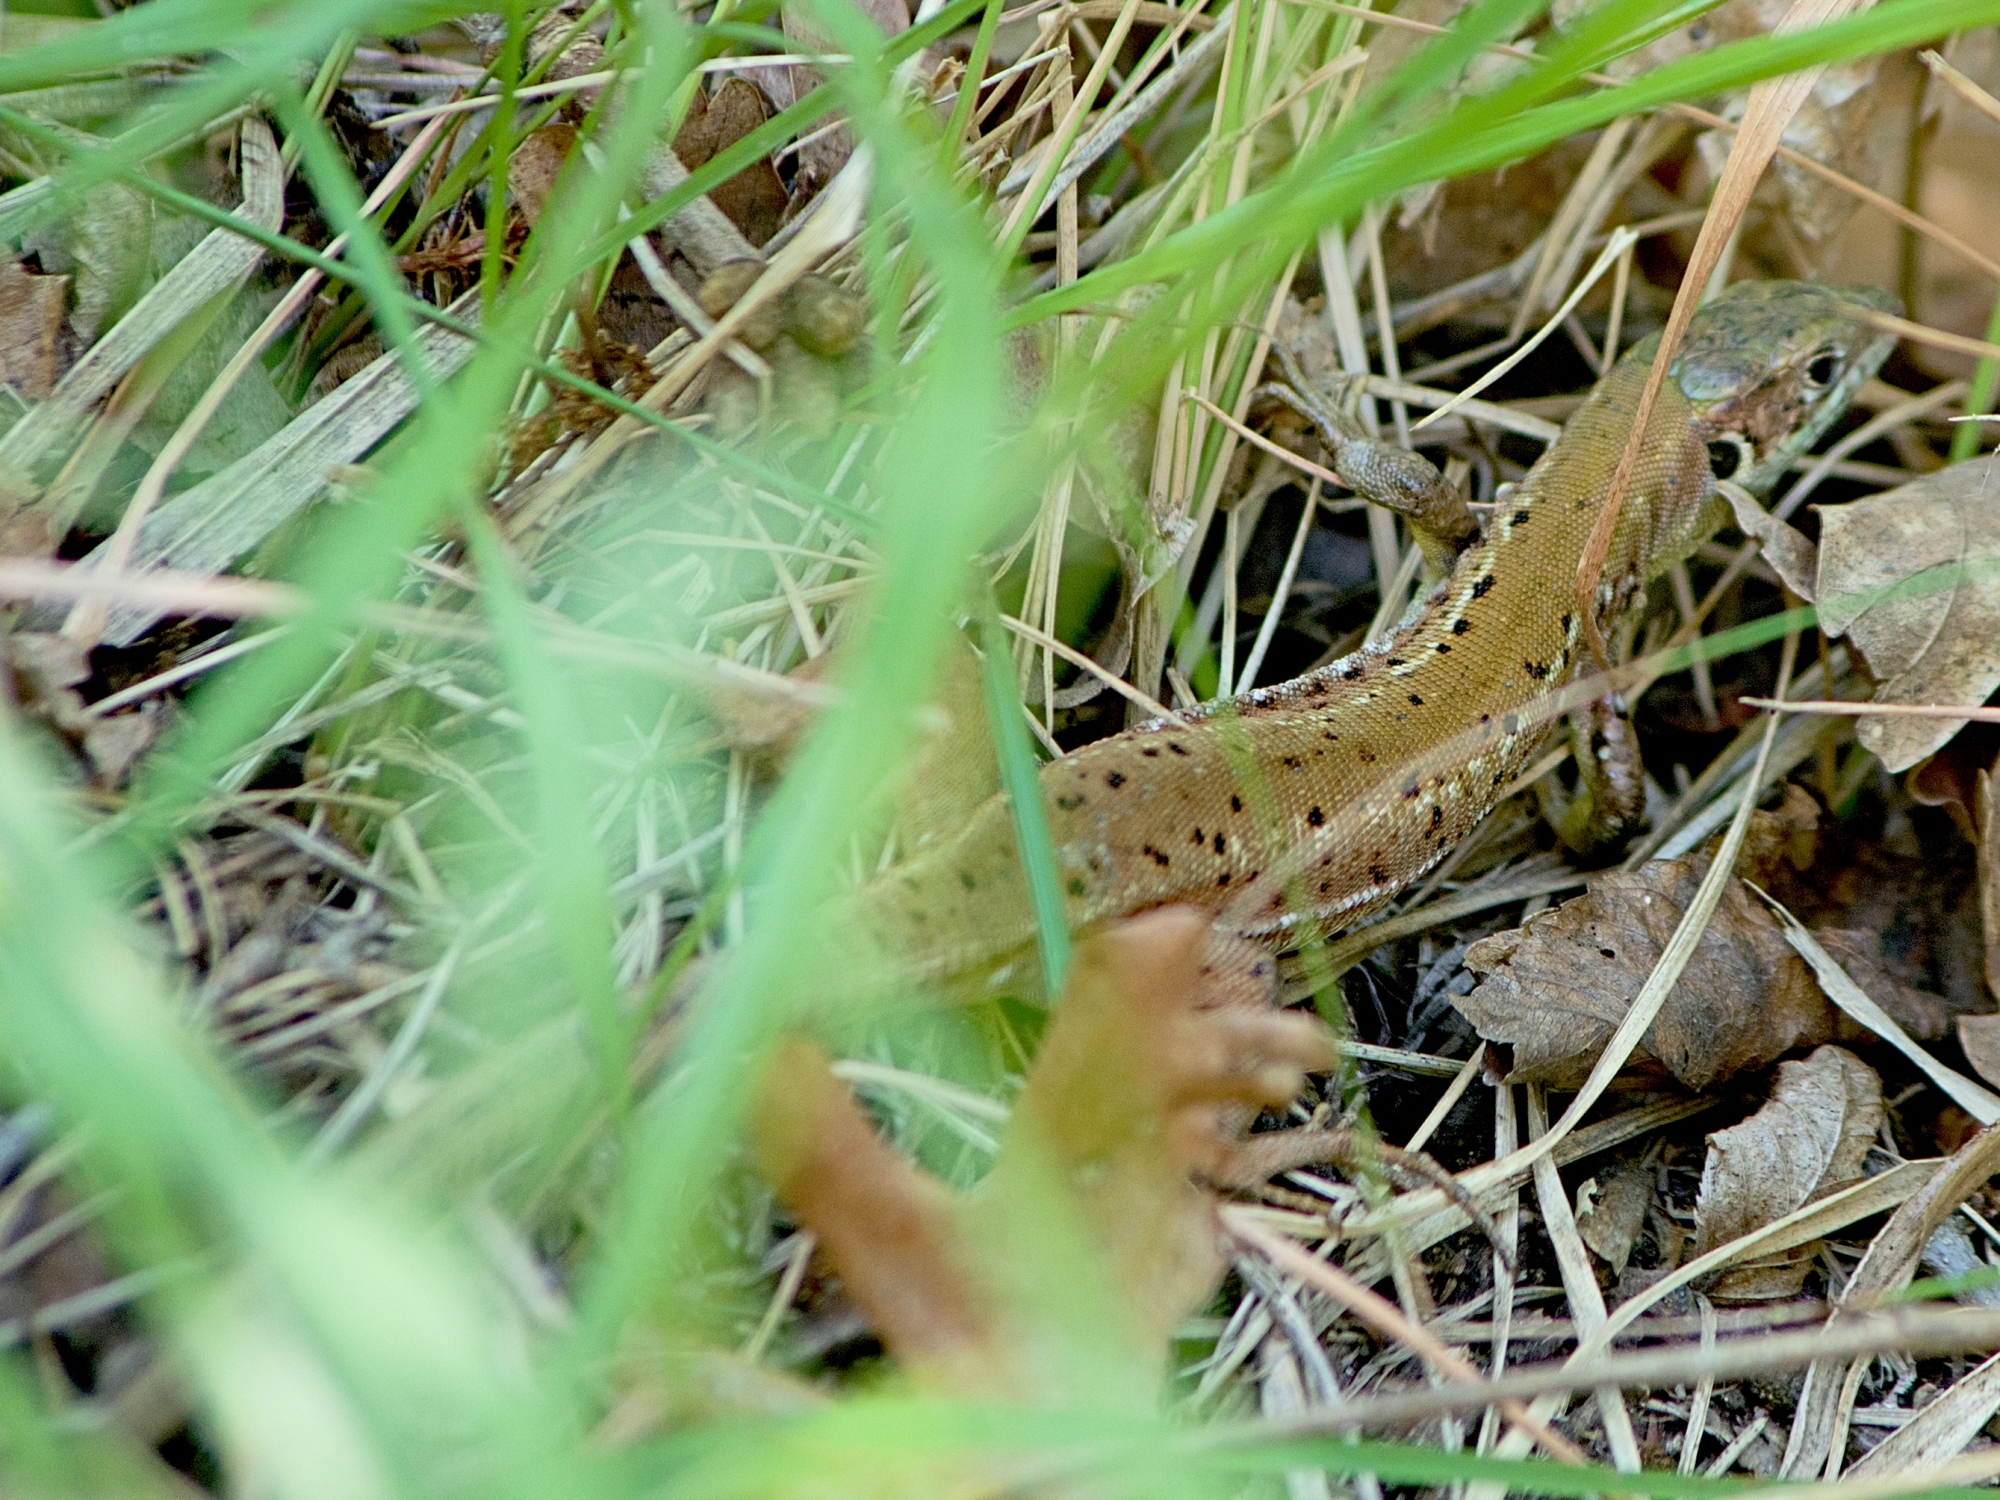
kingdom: Animalia
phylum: Chordata
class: Squamata
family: Lacertidae
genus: Lacerta
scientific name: Lacerta viridis
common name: European green lizard
